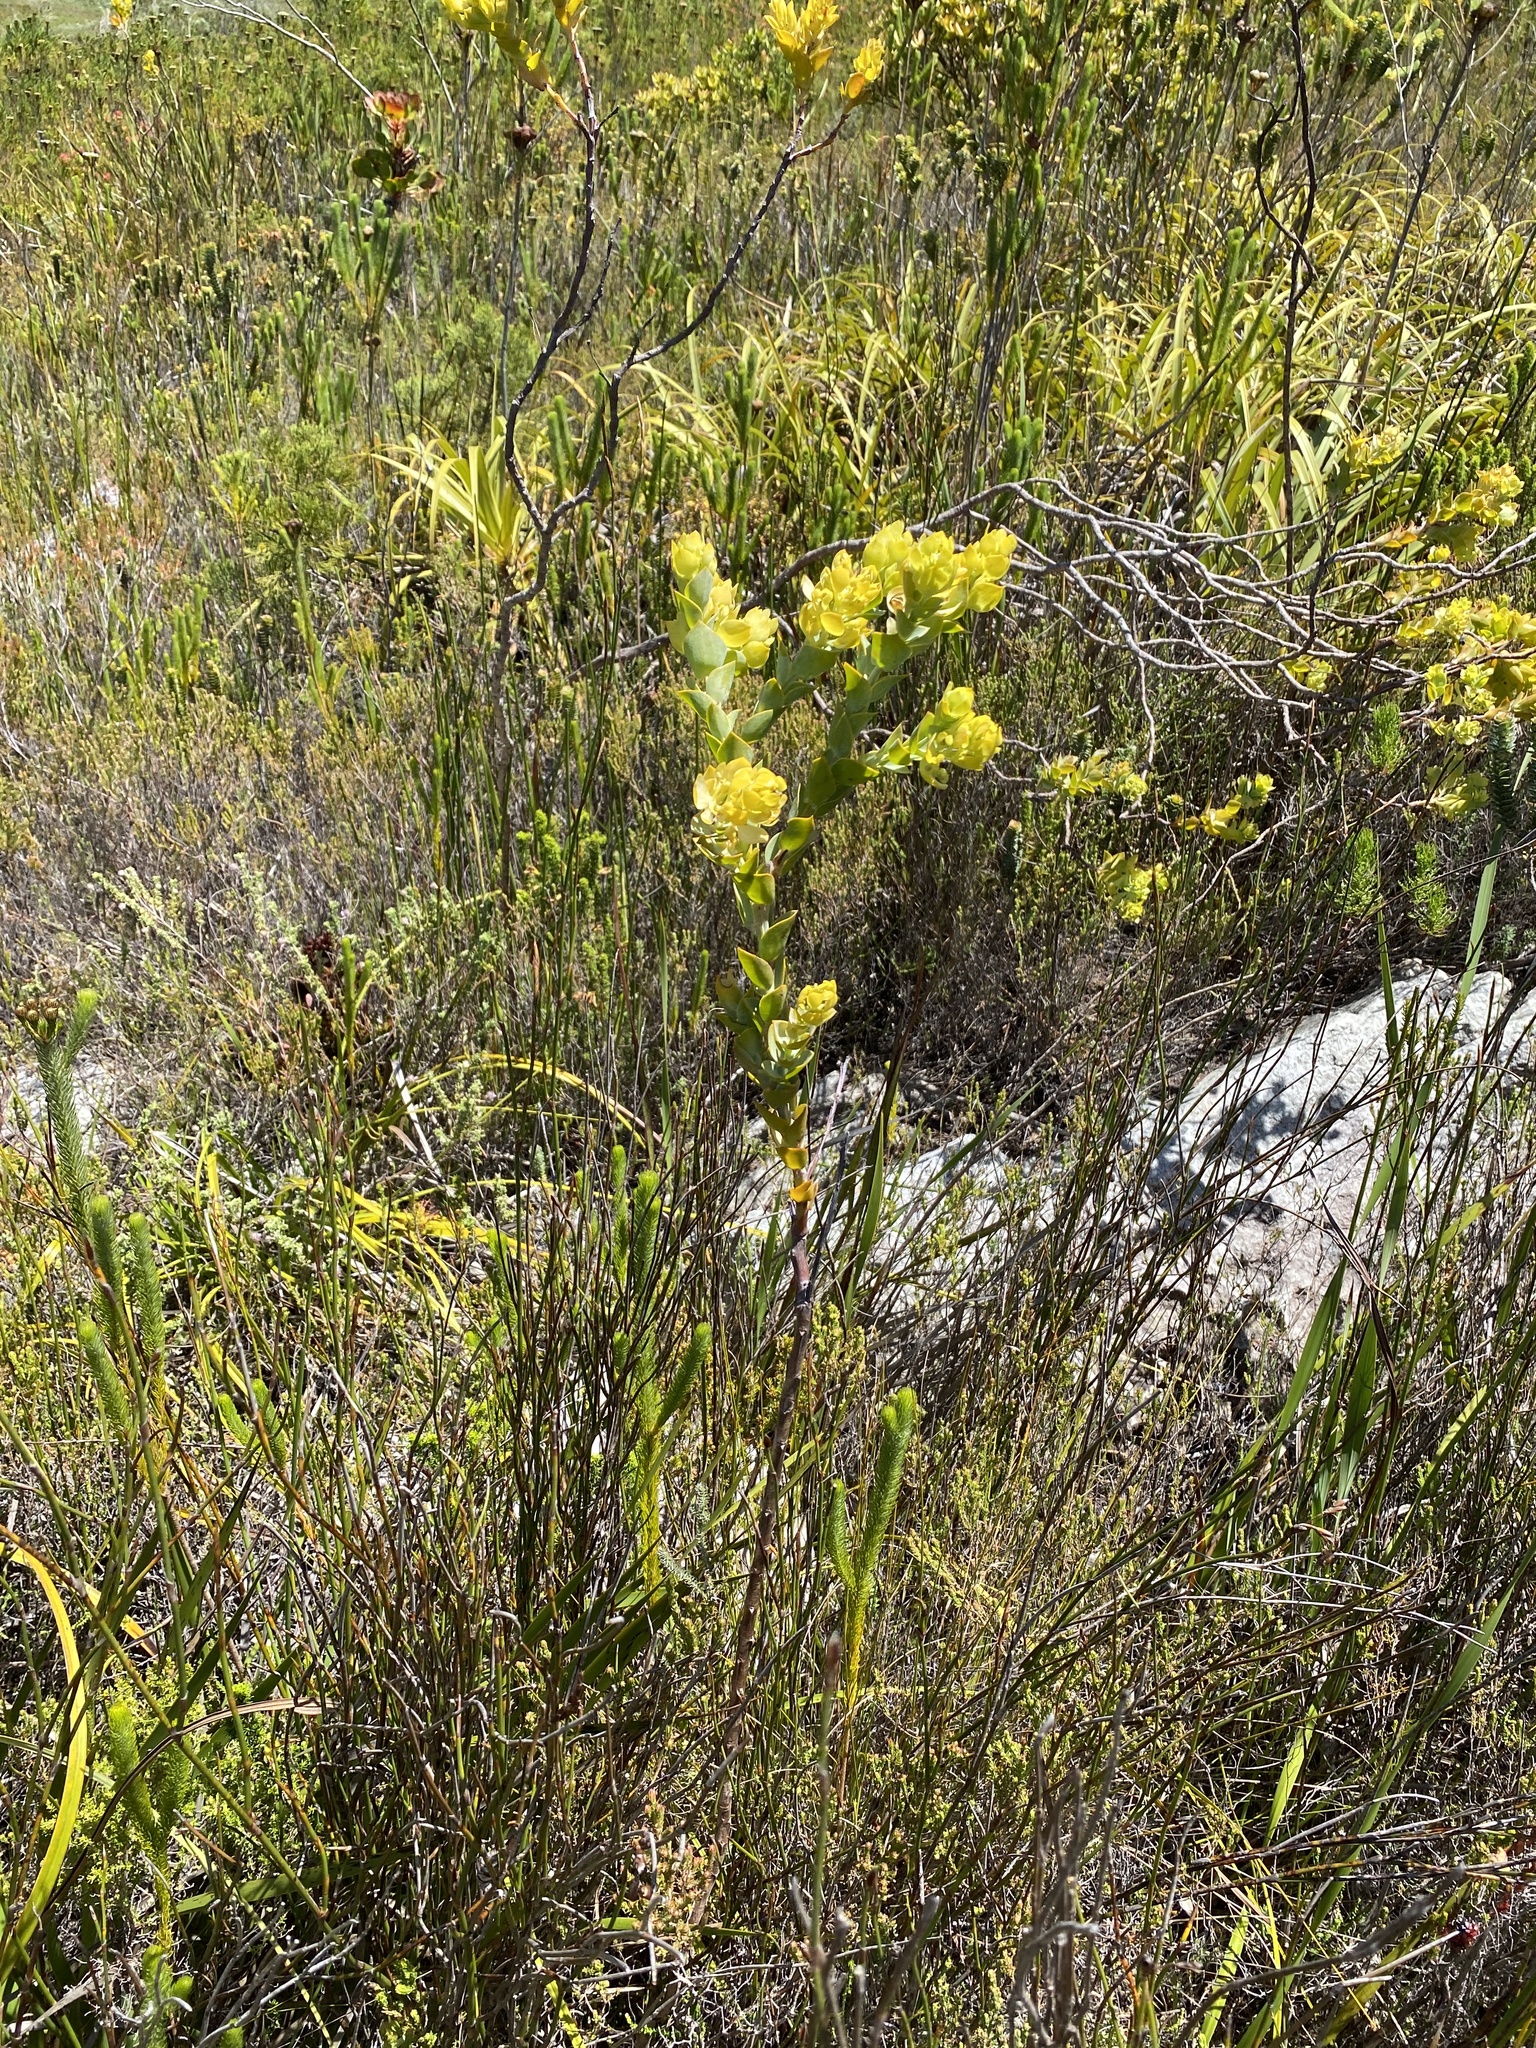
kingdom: Plantae
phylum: Tracheophyta
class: Magnoliopsida
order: Santalales
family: Thesiaceae
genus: Thesium
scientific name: Thesium euphorbioides
